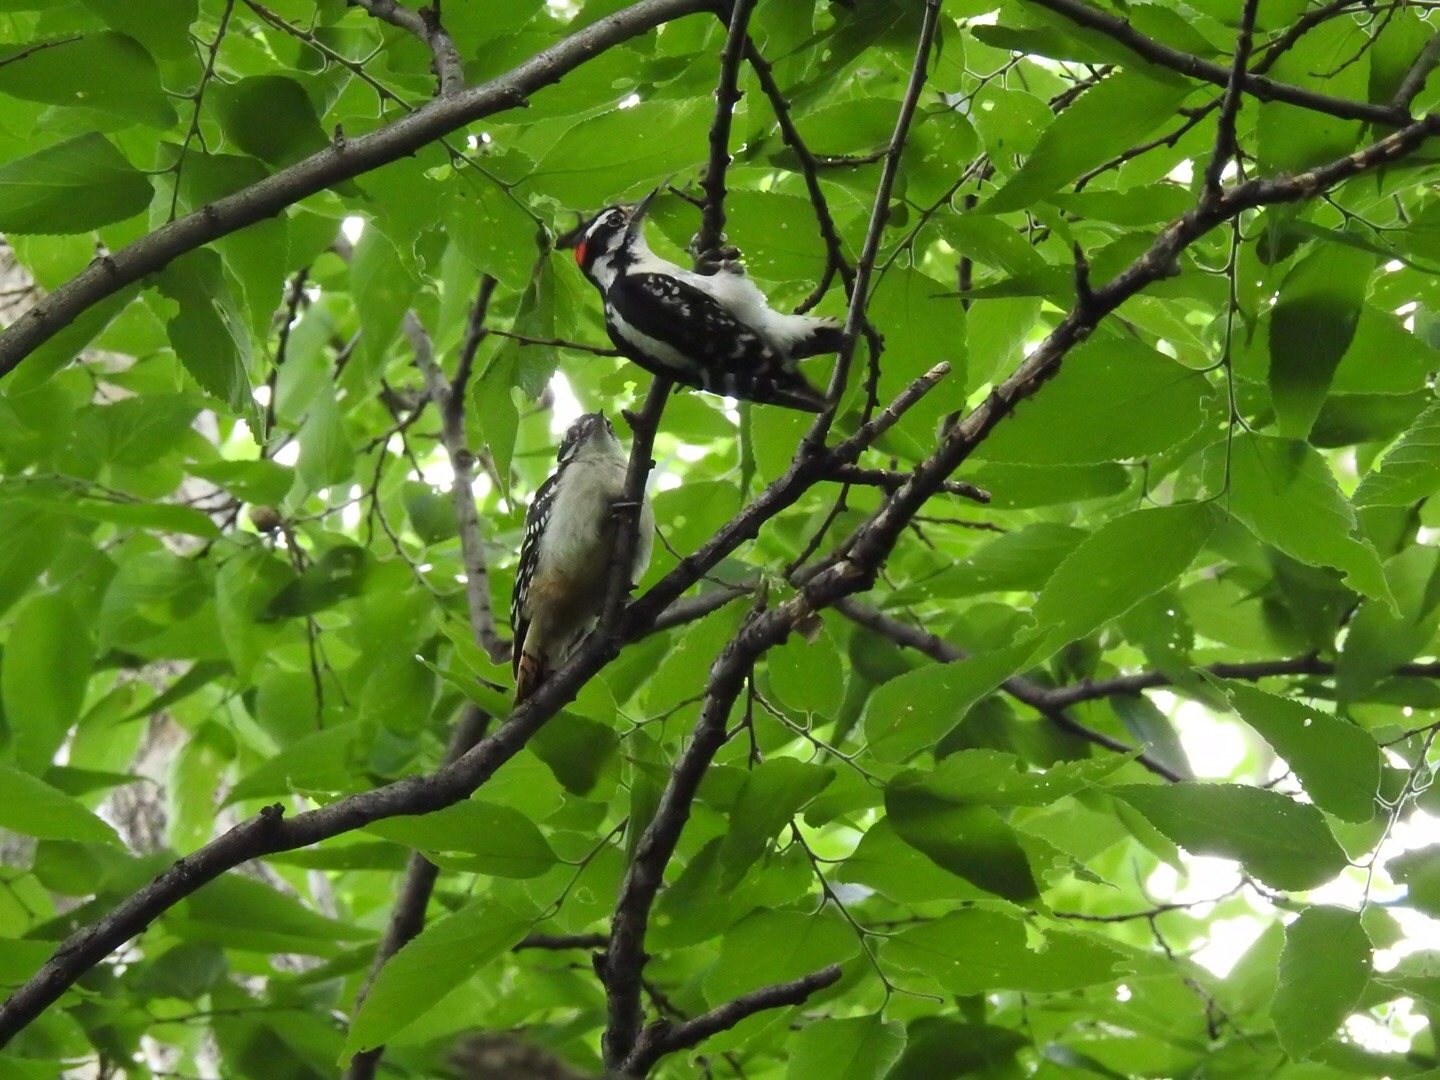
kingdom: Animalia
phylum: Chordata
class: Aves
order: Piciformes
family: Picidae
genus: Dryobates
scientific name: Dryobates pubescens
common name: Downy woodpecker
